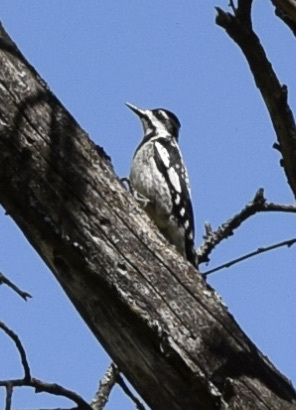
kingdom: Animalia
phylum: Chordata
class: Aves
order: Piciformes
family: Picidae
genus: Sphyrapicus
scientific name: Sphyrapicus varius
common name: Yellow-bellied sapsucker
